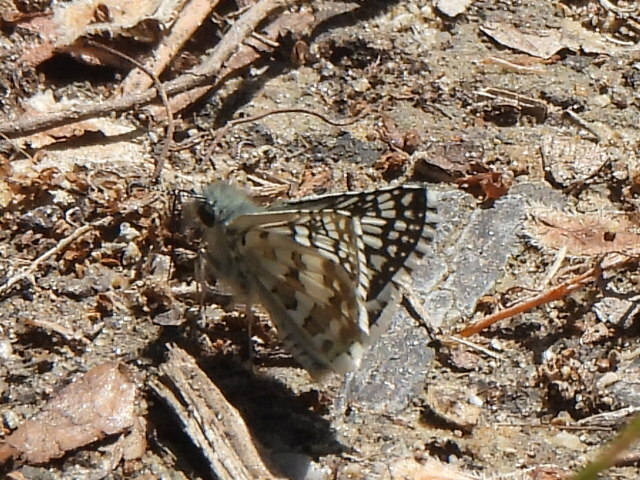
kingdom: Animalia
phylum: Arthropoda
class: Insecta
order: Lepidoptera
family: Hesperiidae
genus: Burnsius
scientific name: Burnsius
